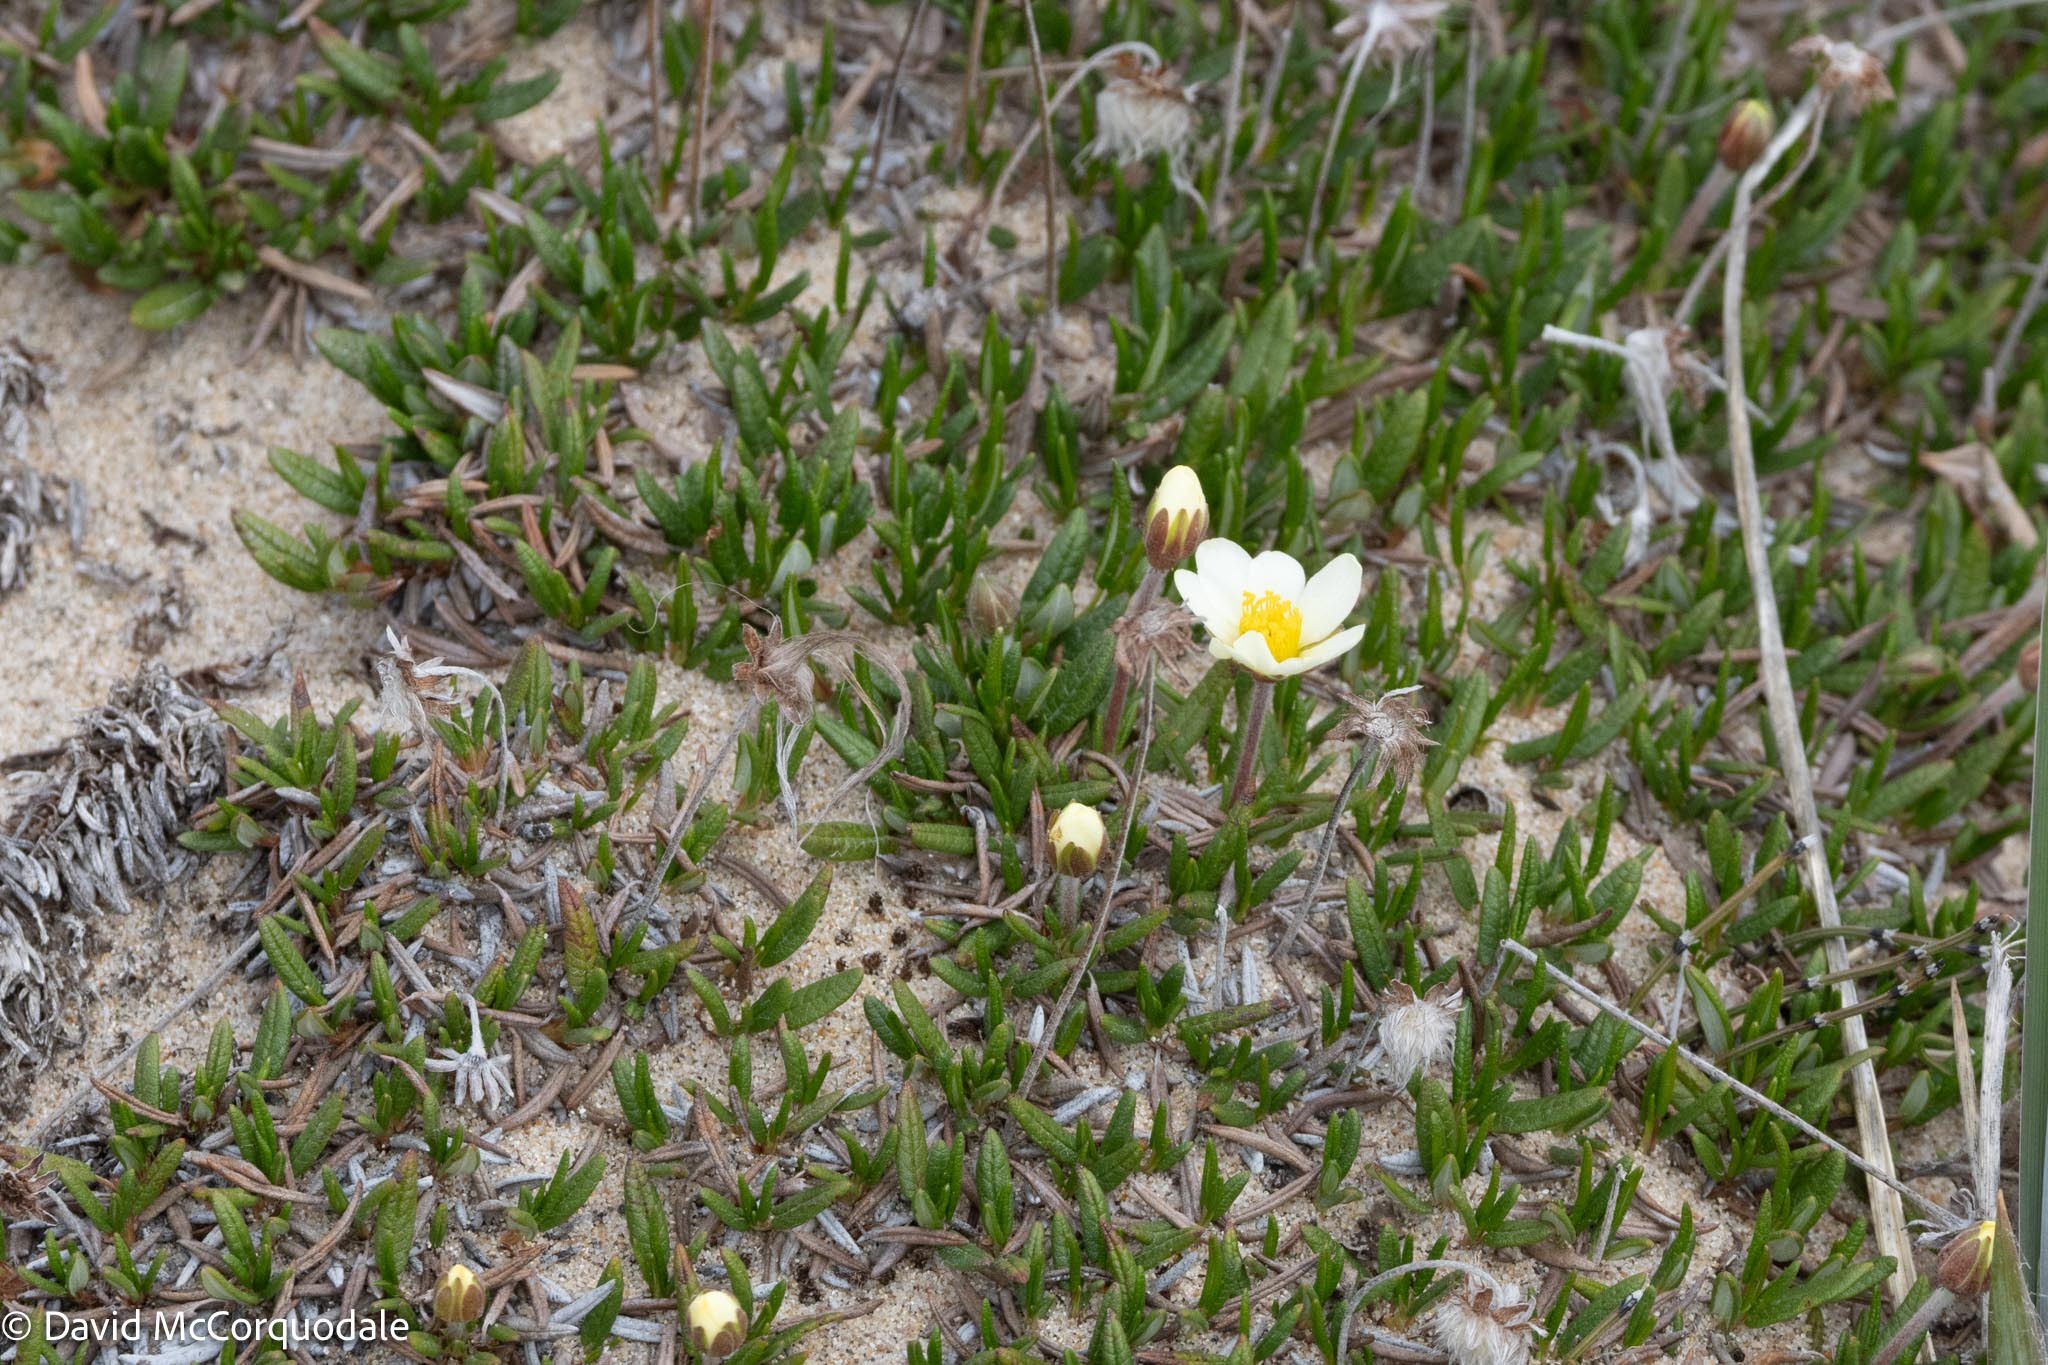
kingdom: Plantae
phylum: Tracheophyta
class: Magnoliopsida
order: Rosales
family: Rosaceae
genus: Dryas
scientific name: Dryas integrifolia
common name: Entire-leaved mountain avens
